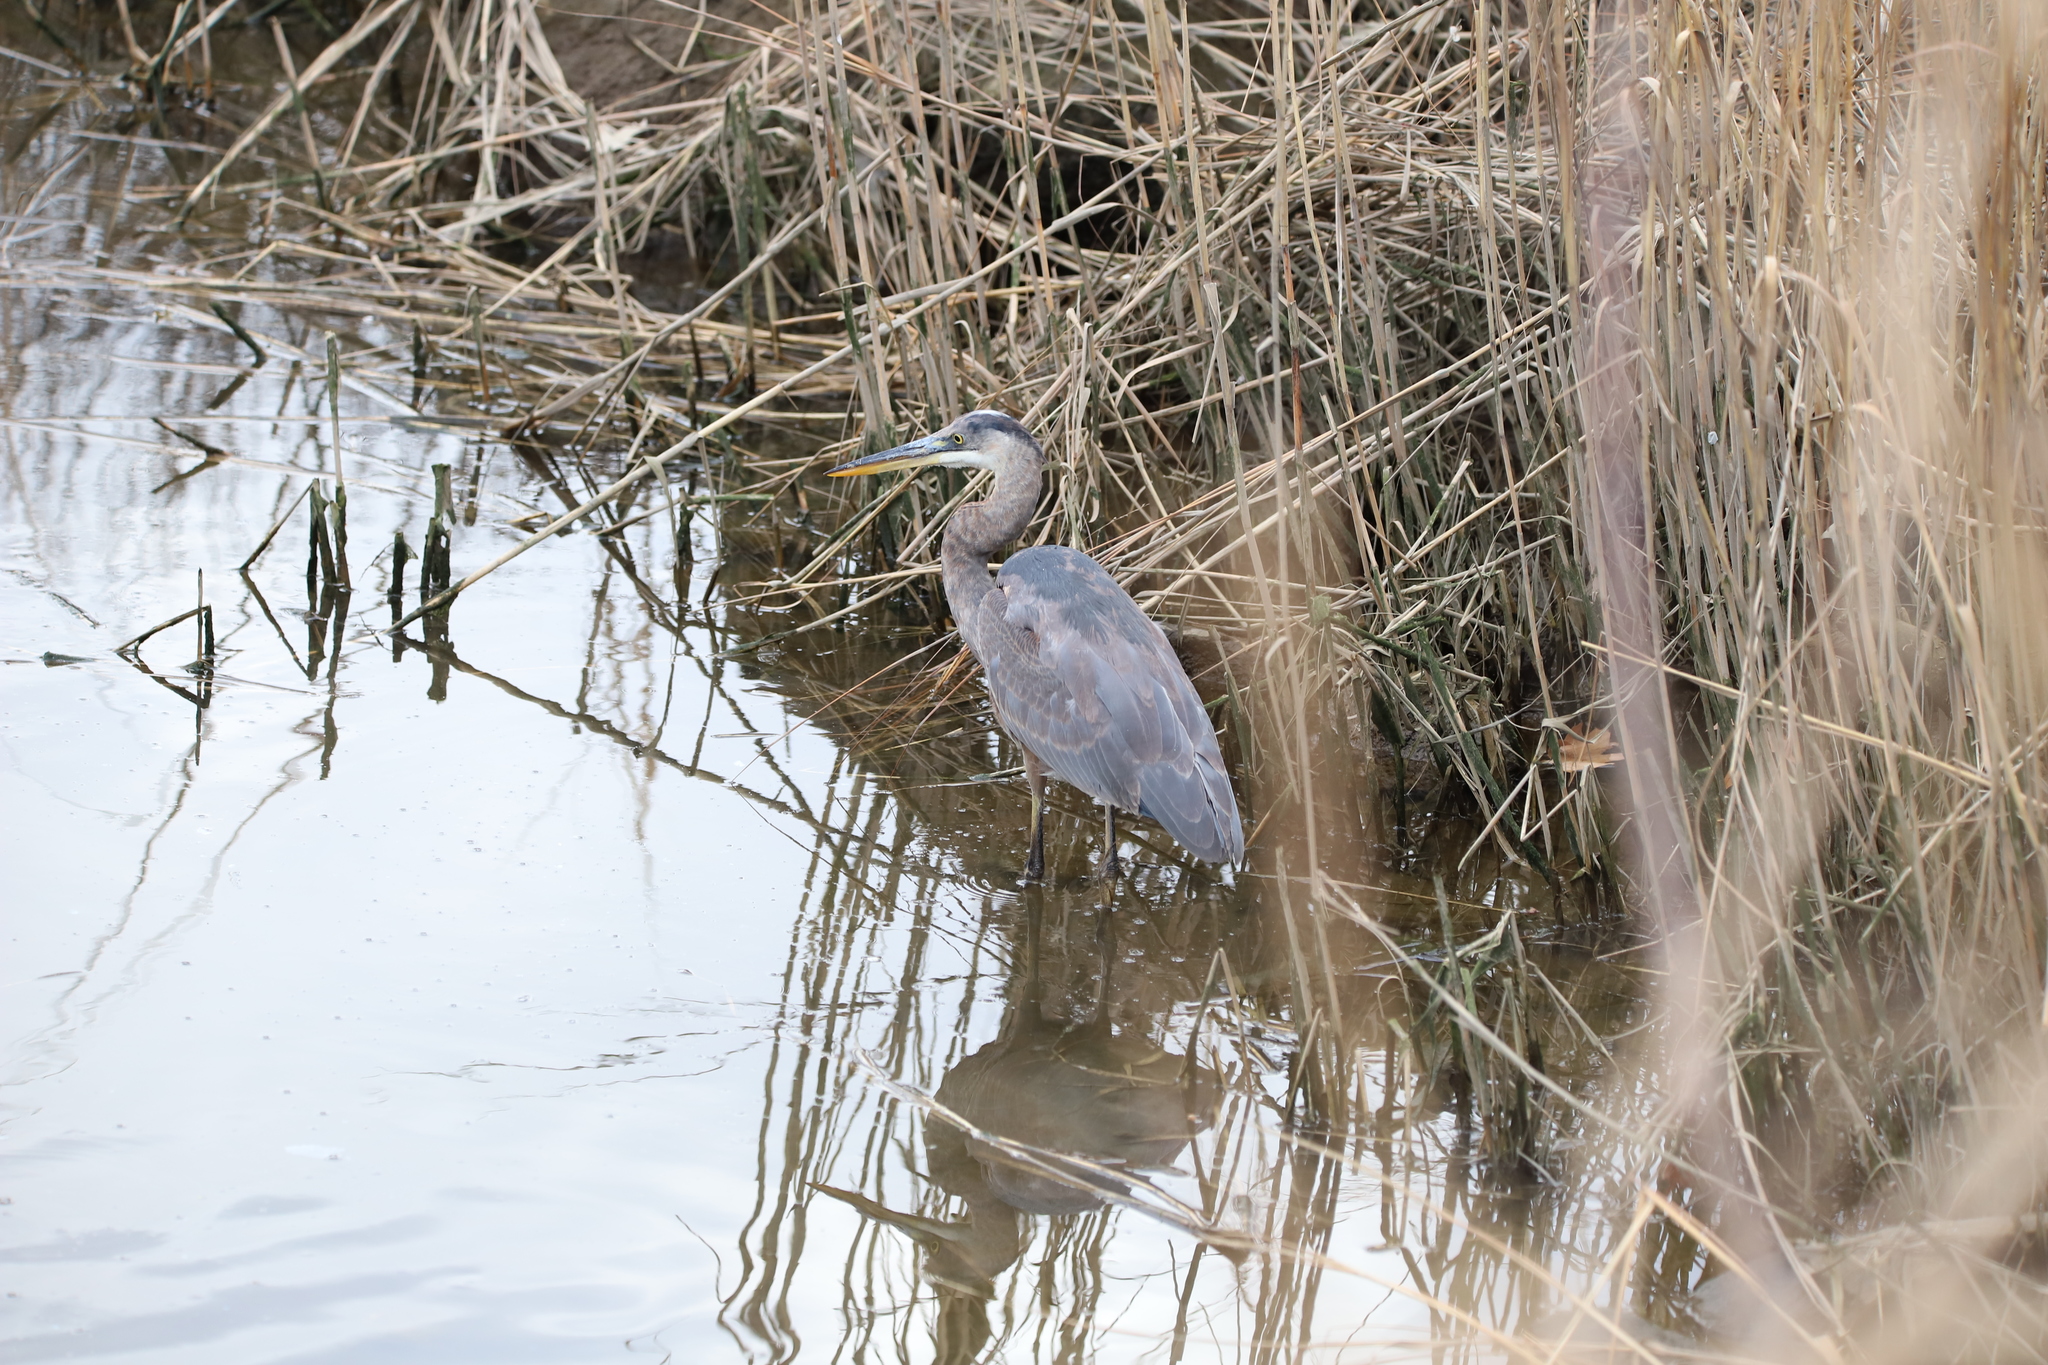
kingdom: Animalia
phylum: Chordata
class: Aves
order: Pelecaniformes
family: Ardeidae
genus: Ardea
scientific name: Ardea herodias
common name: Great blue heron
